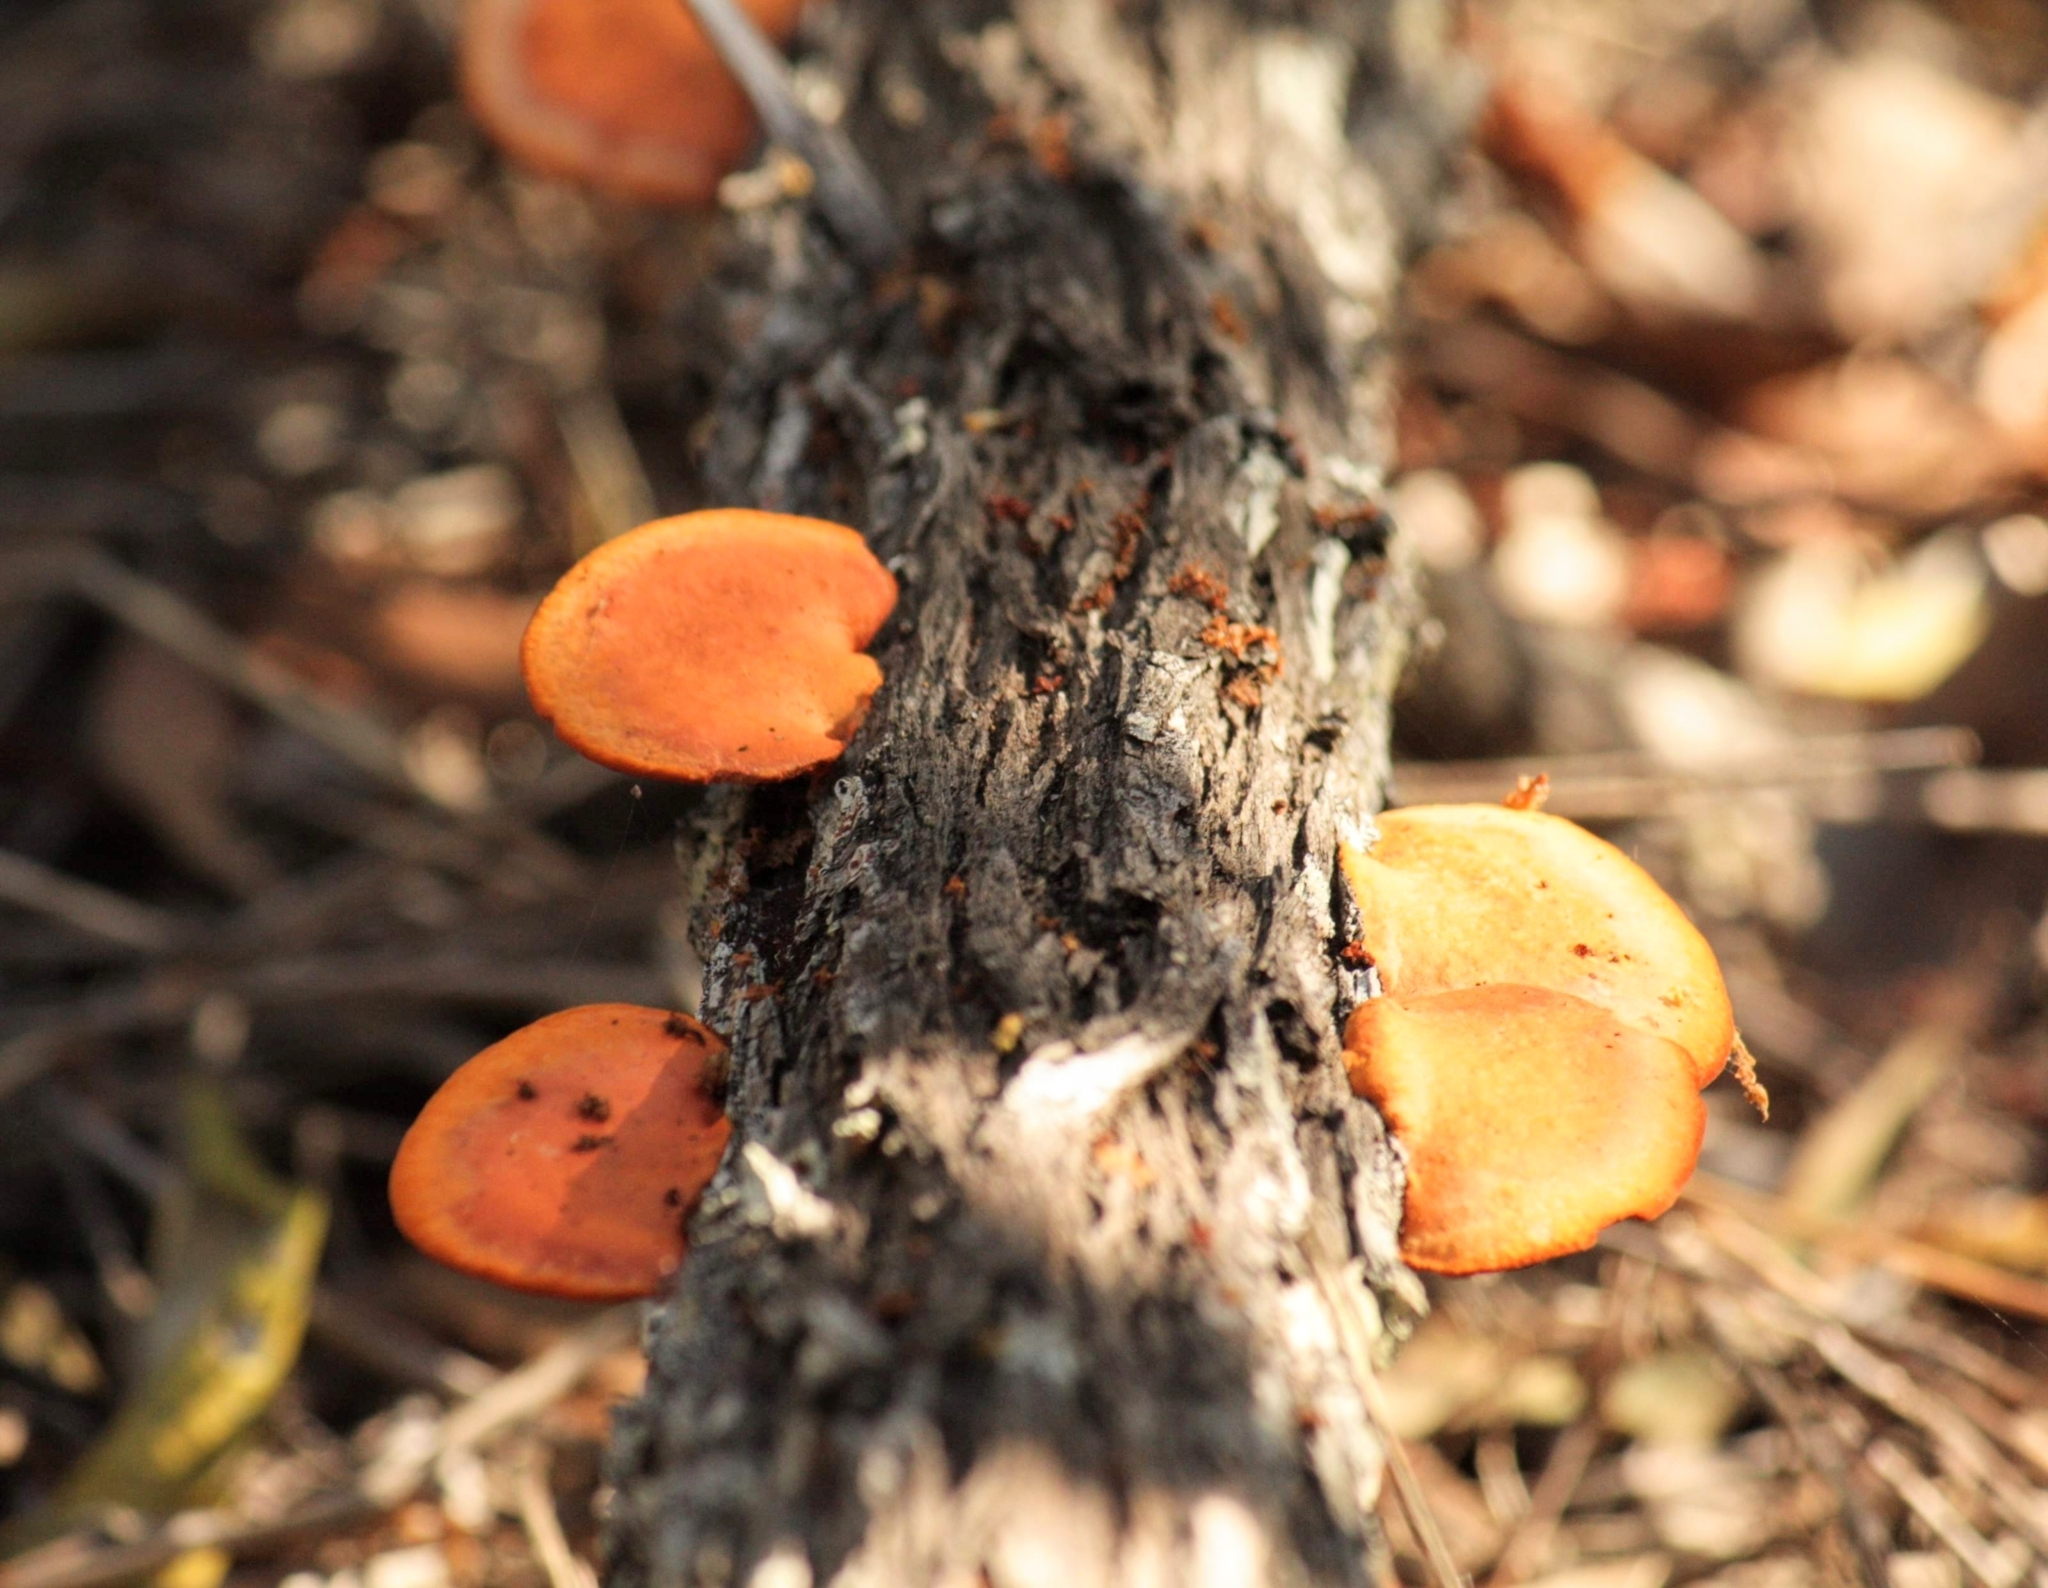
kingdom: Fungi
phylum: Basidiomycota
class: Agaricomycetes
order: Polyporales
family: Polyporaceae
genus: Trametes
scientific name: Trametes coccinea
